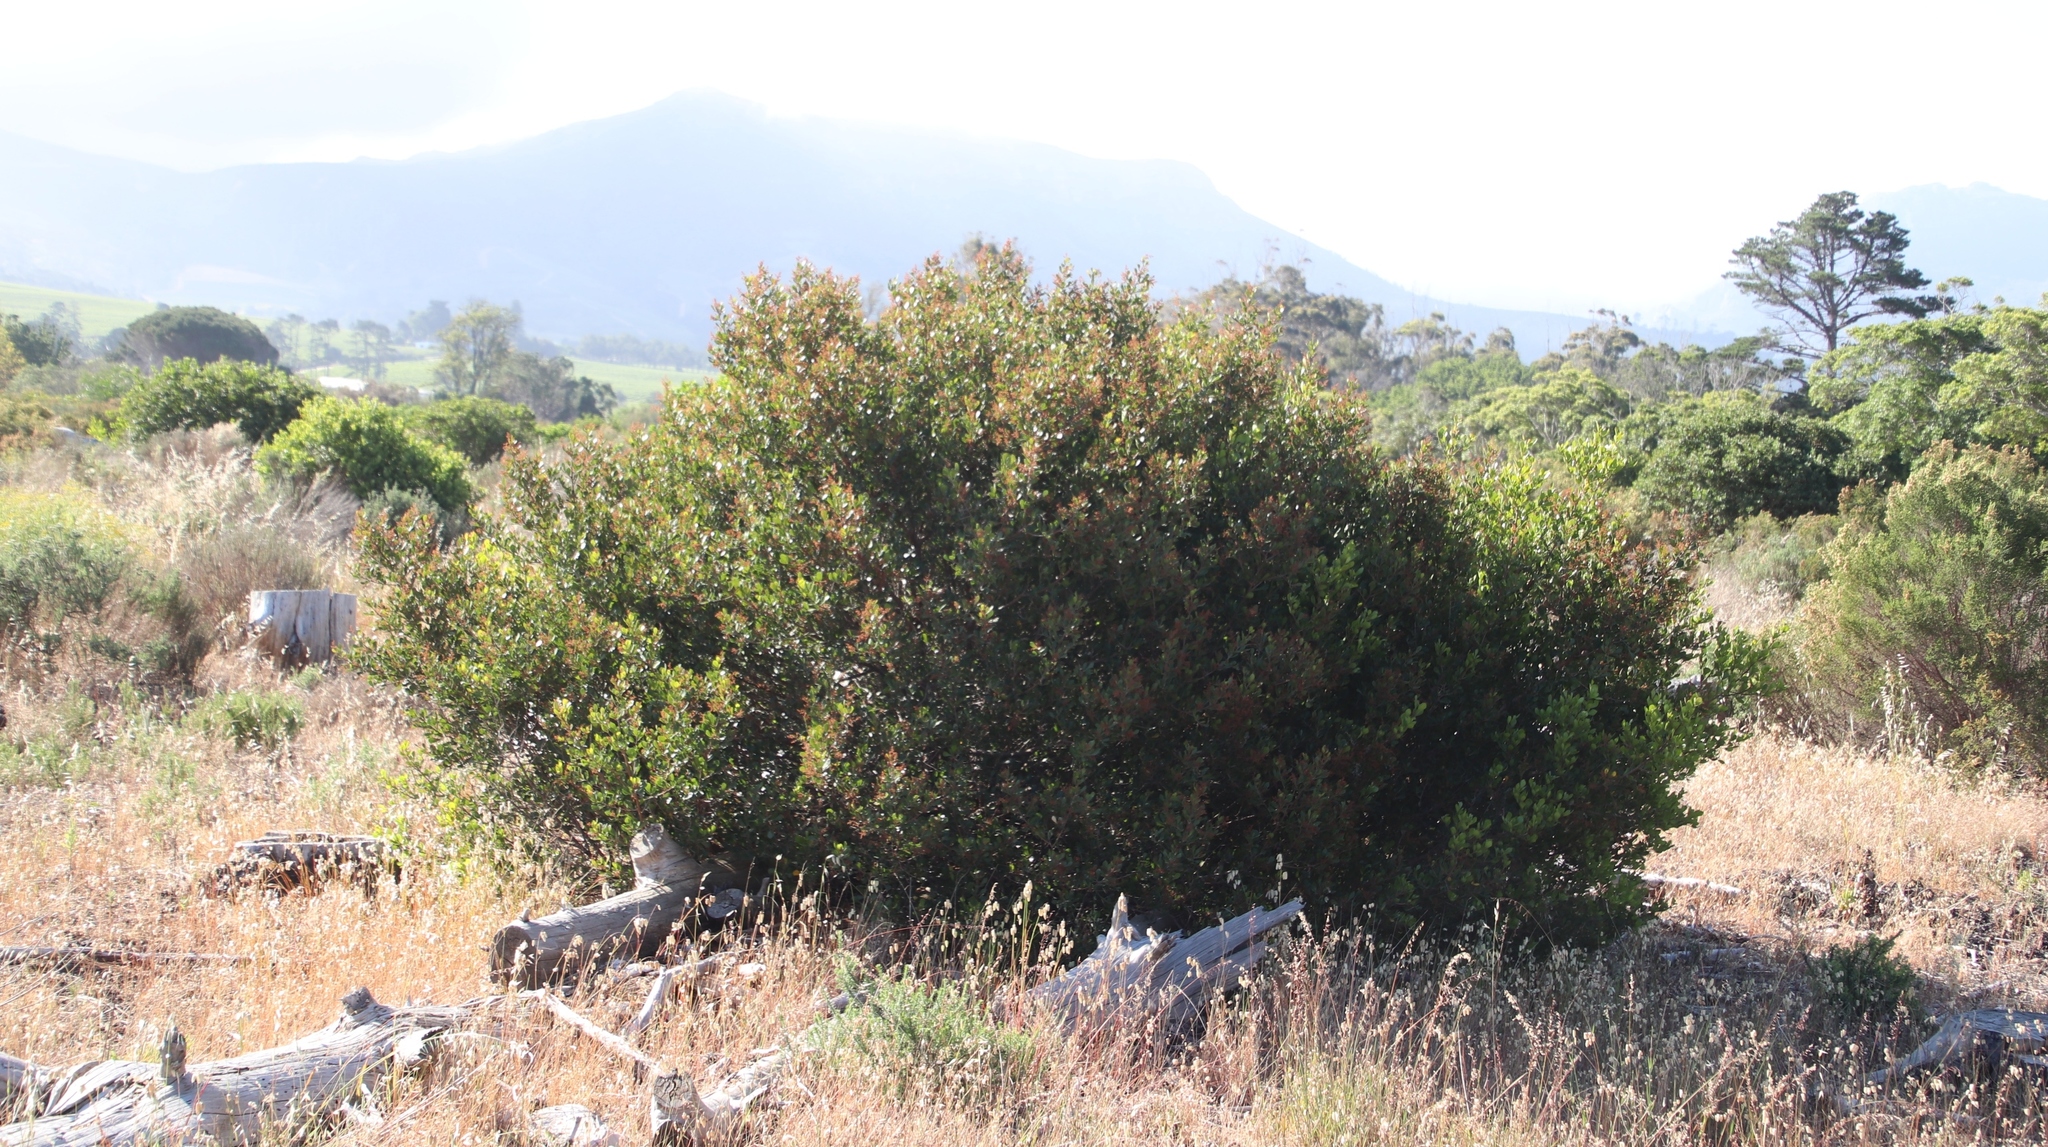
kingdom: Plantae
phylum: Tracheophyta
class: Magnoliopsida
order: Sapindales
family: Anacardiaceae
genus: Searsia
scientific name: Searsia lucida
